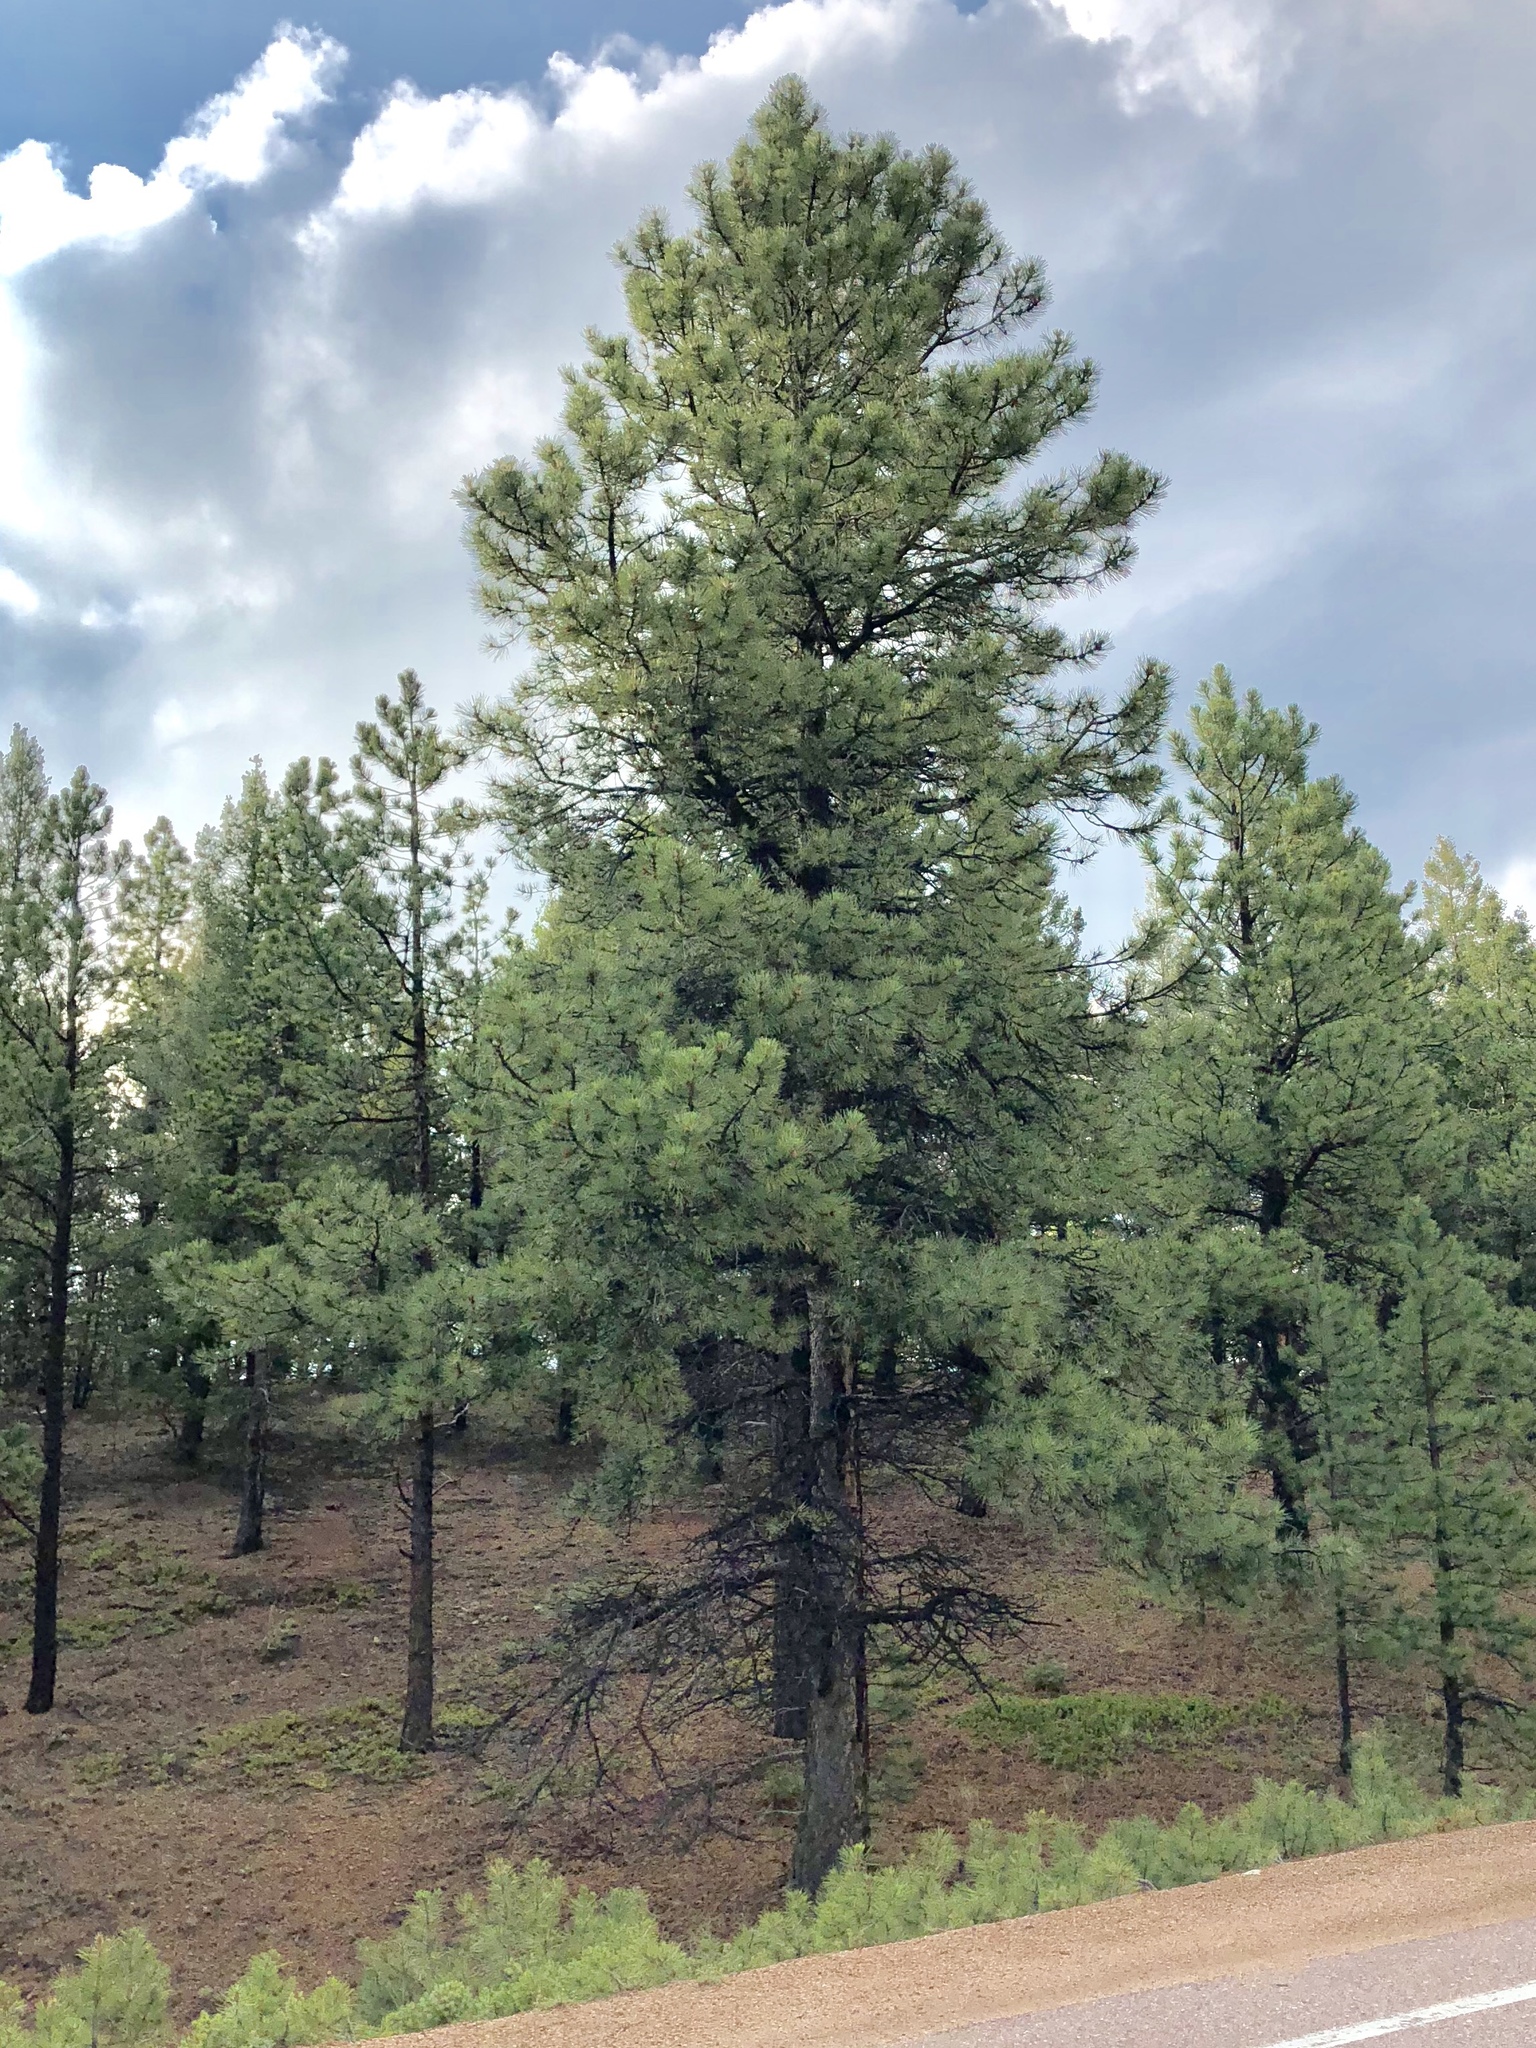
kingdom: Plantae
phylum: Tracheophyta
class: Pinopsida
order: Pinales
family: Pinaceae
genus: Pinus
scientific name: Pinus ponderosa
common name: Western yellow-pine
